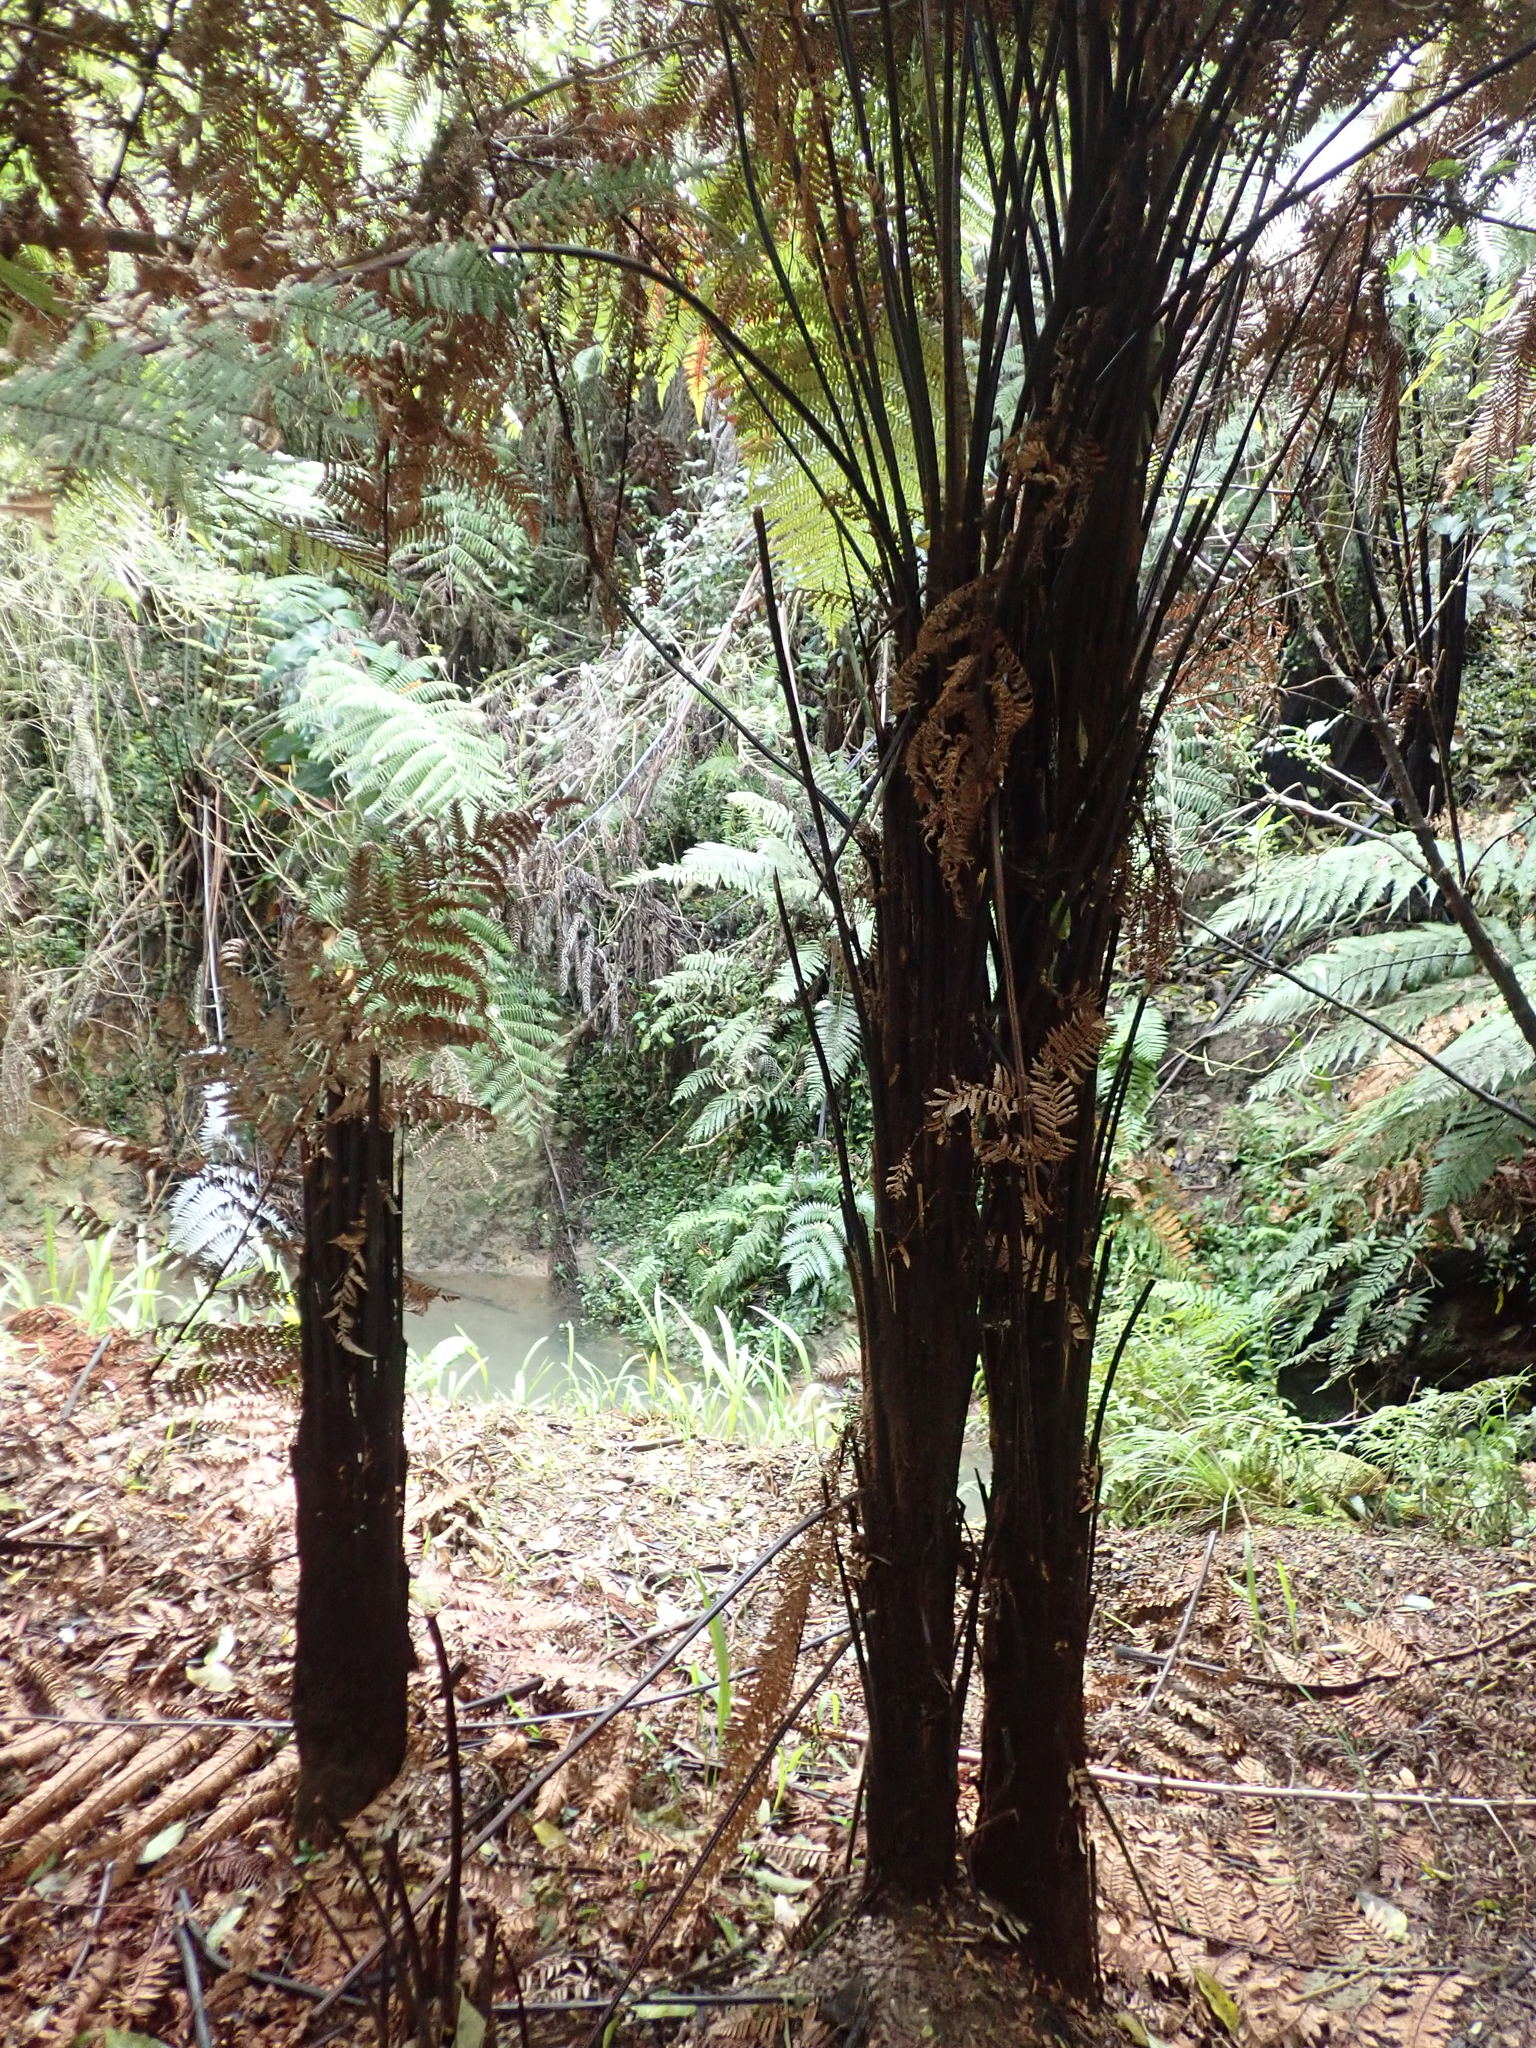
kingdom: Plantae
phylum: Tracheophyta
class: Liliopsida
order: Commelinales
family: Commelinaceae
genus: Tradescantia
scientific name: Tradescantia fluminensis
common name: Wandering-jew
